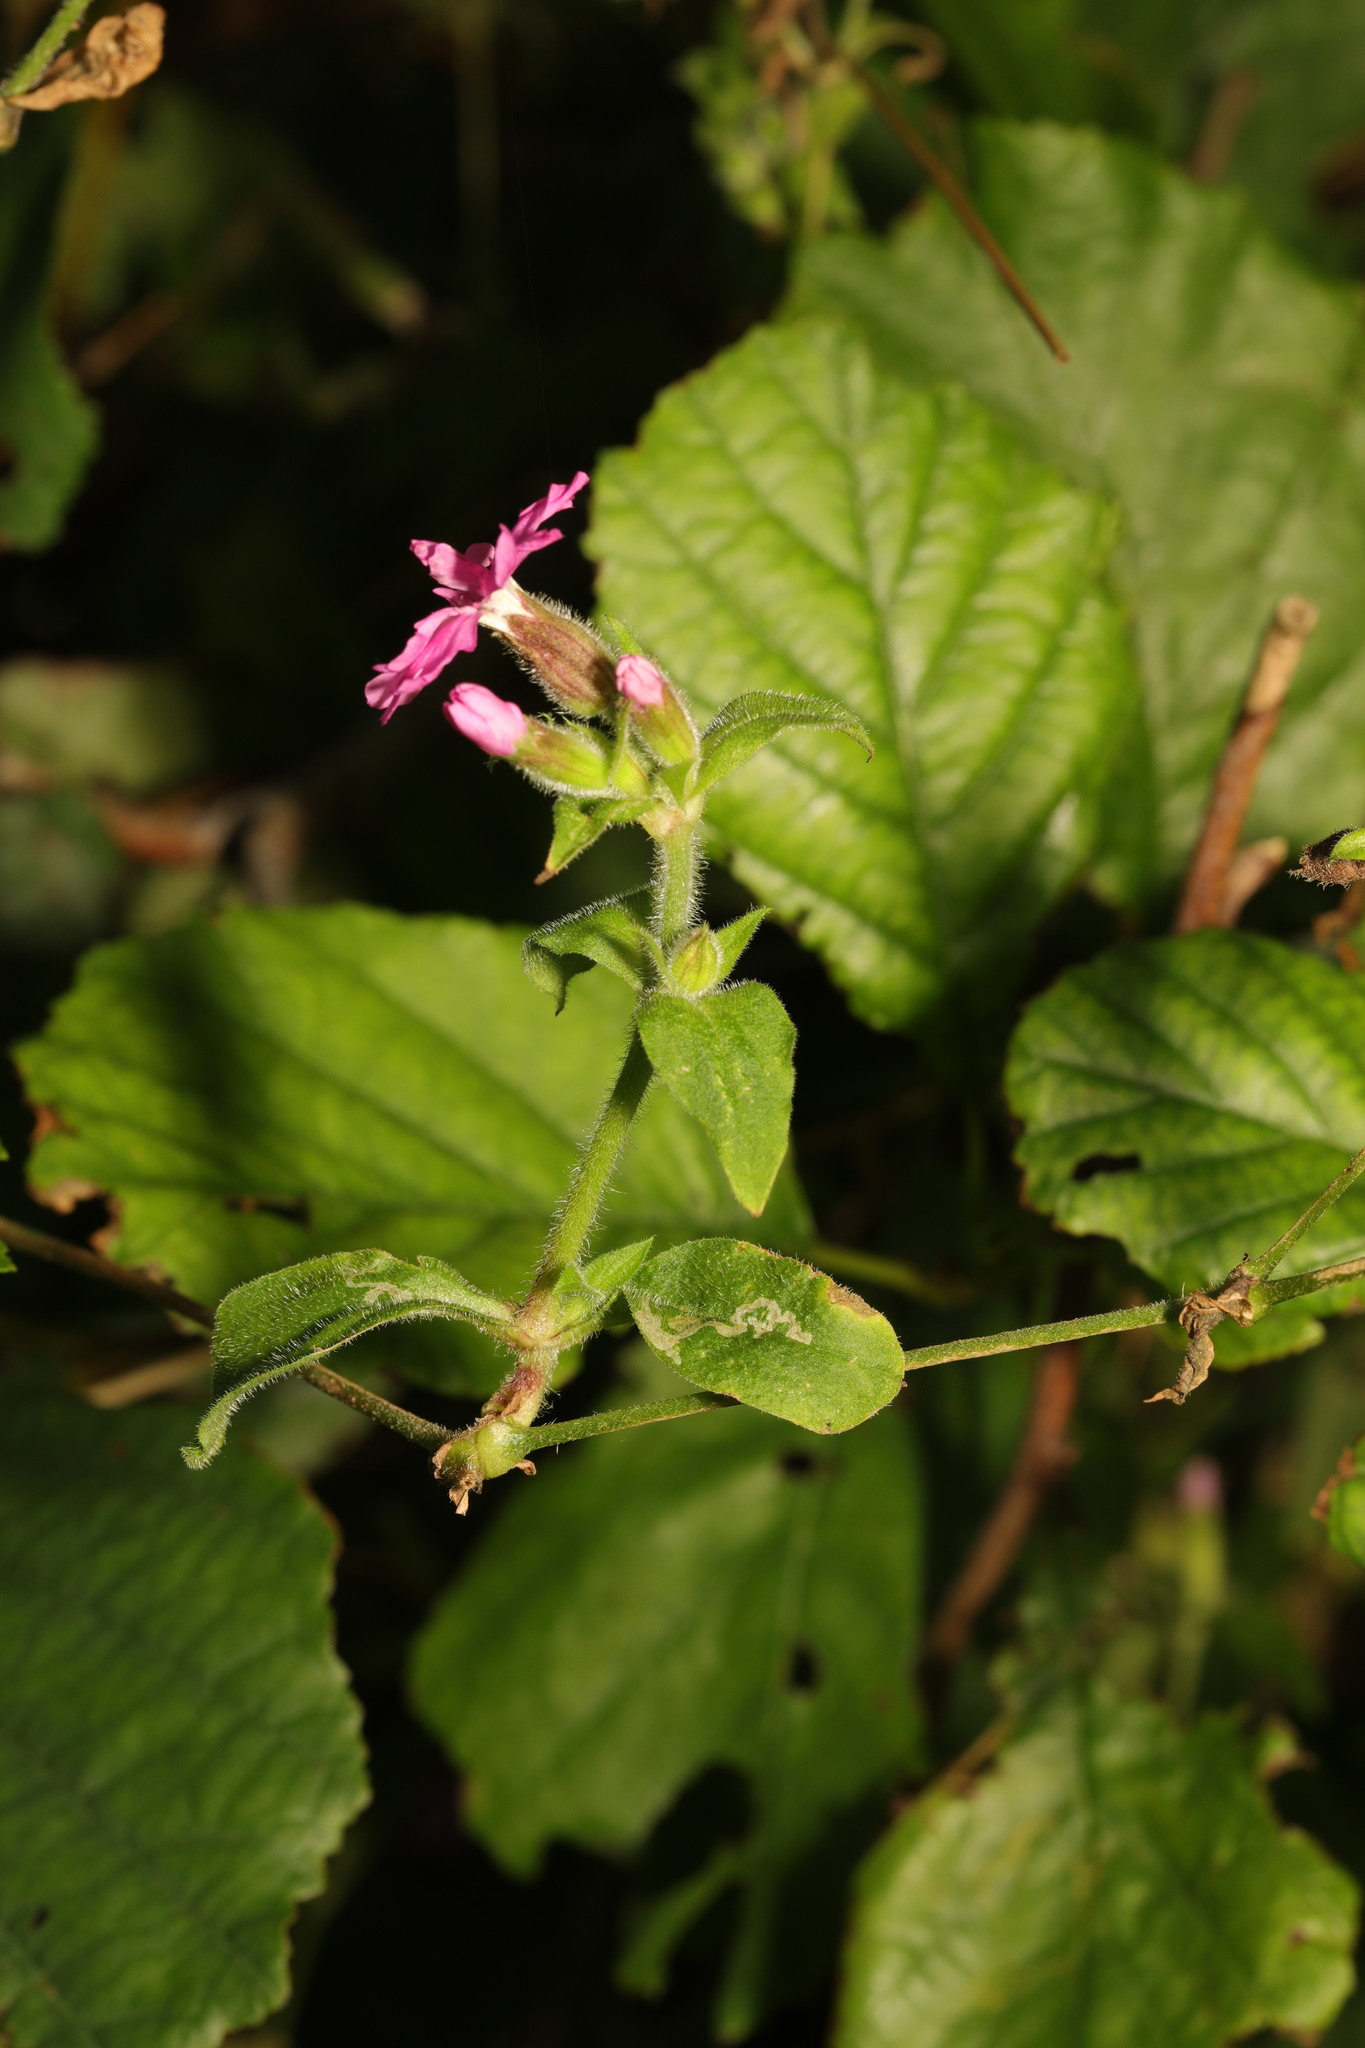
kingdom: Plantae
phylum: Tracheophyta
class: Magnoliopsida
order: Caryophyllales
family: Caryophyllaceae
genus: Silene
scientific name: Silene dioica
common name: Red campion
